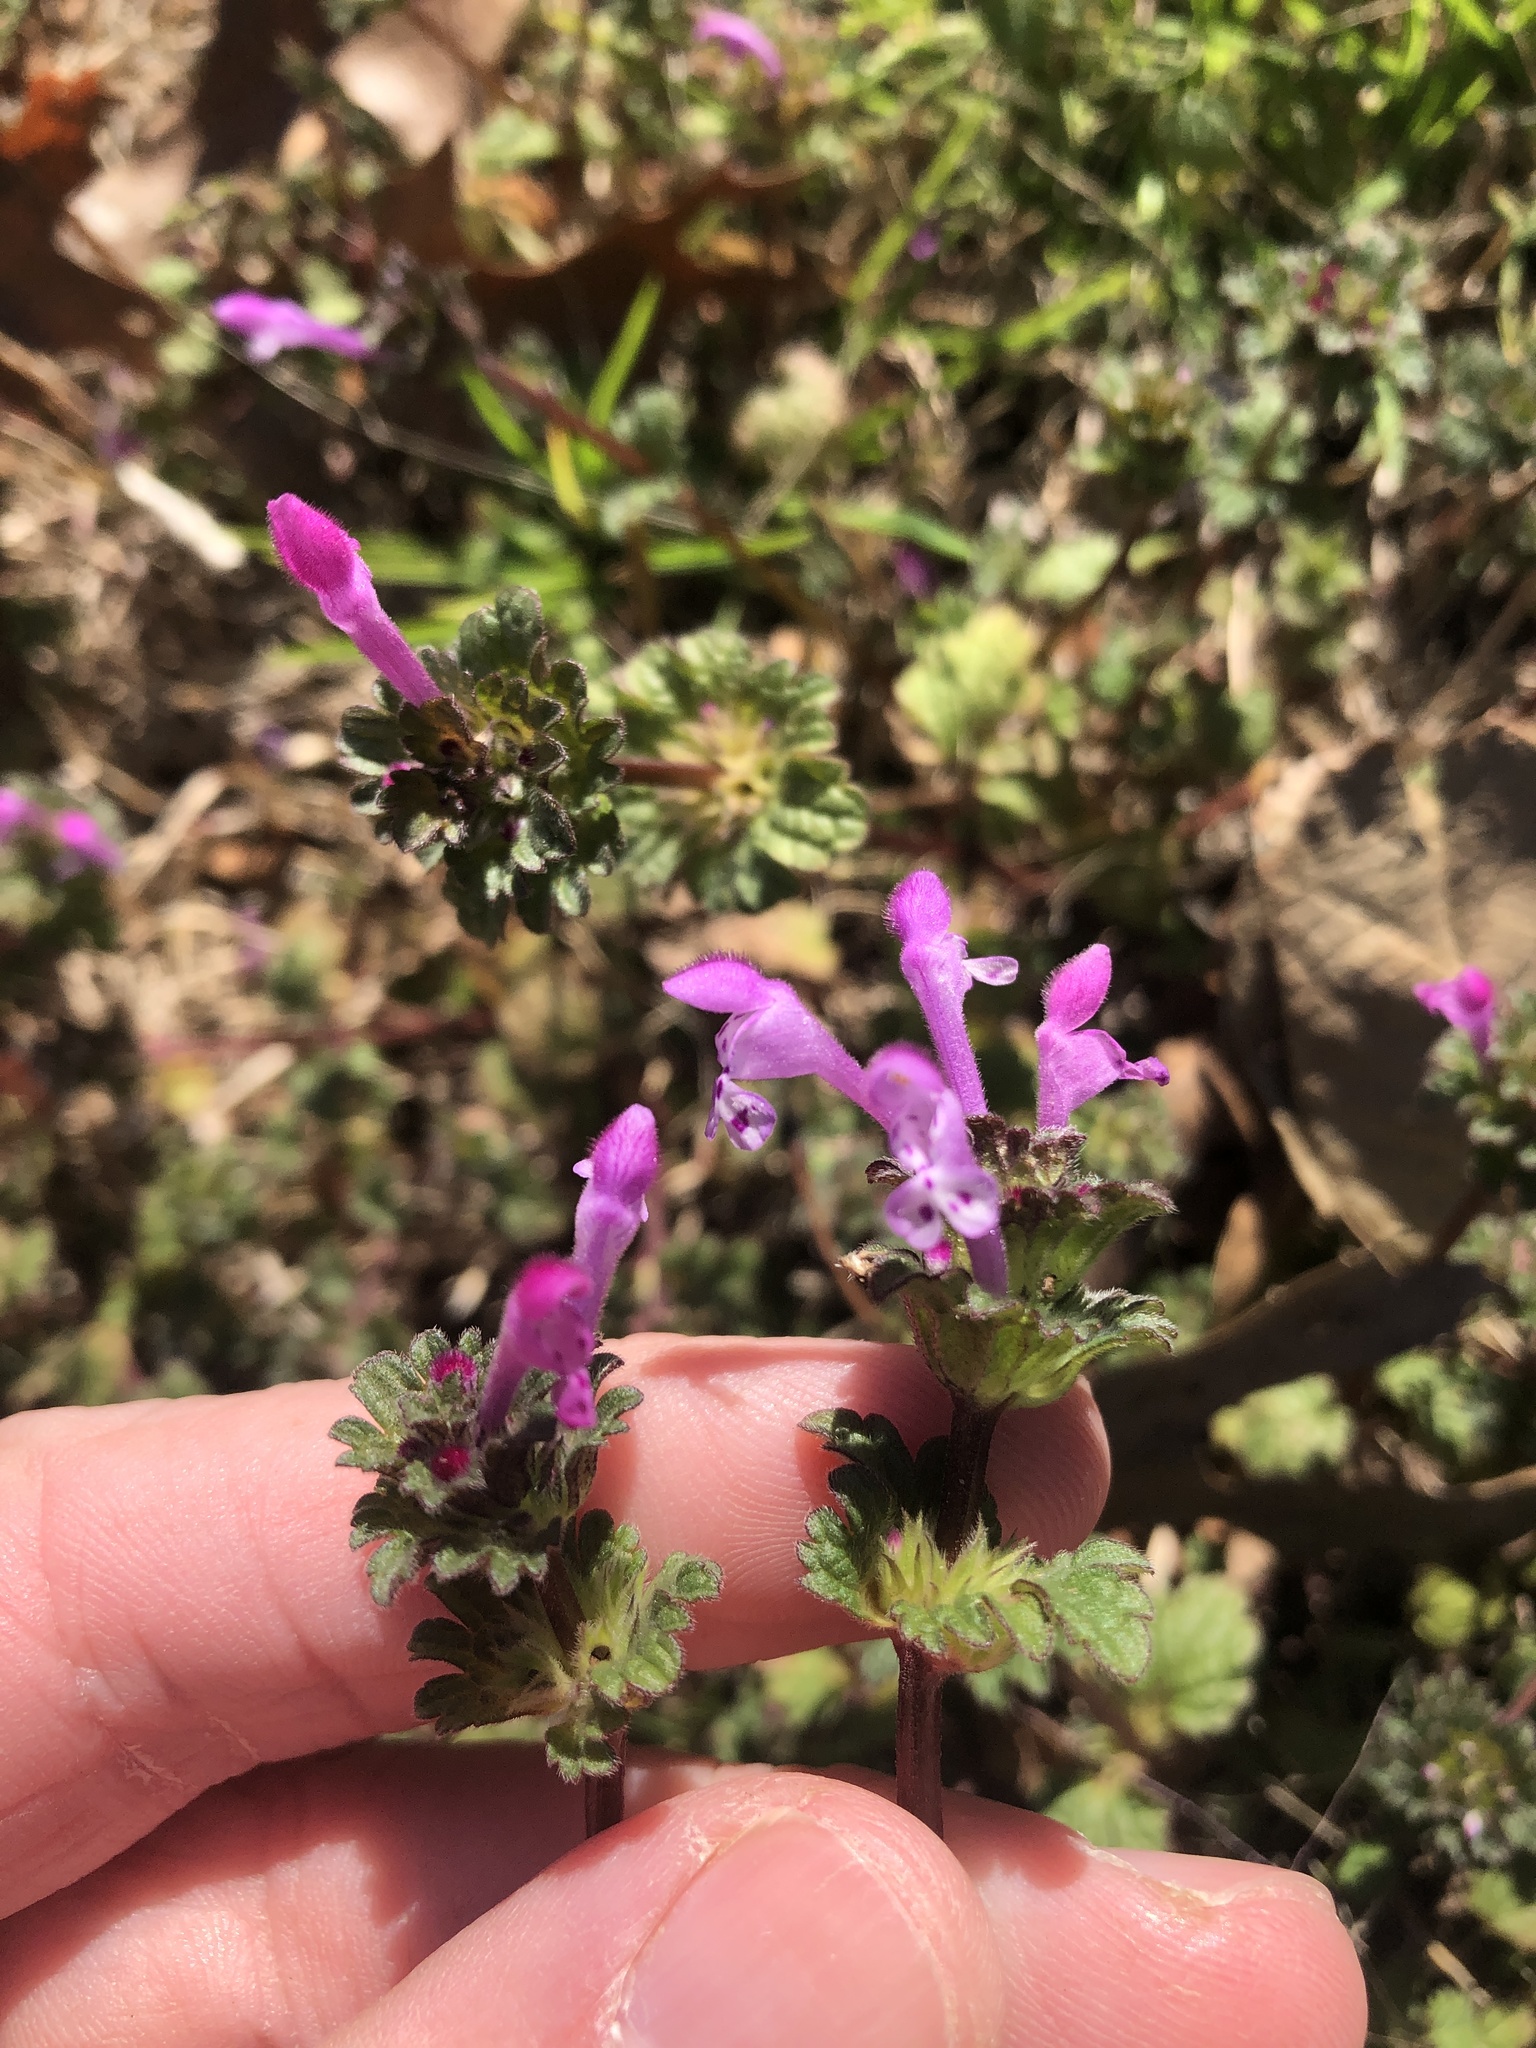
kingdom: Plantae
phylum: Tracheophyta
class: Magnoliopsida
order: Lamiales
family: Lamiaceae
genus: Lamium
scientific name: Lamium amplexicaule
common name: Henbit dead-nettle
